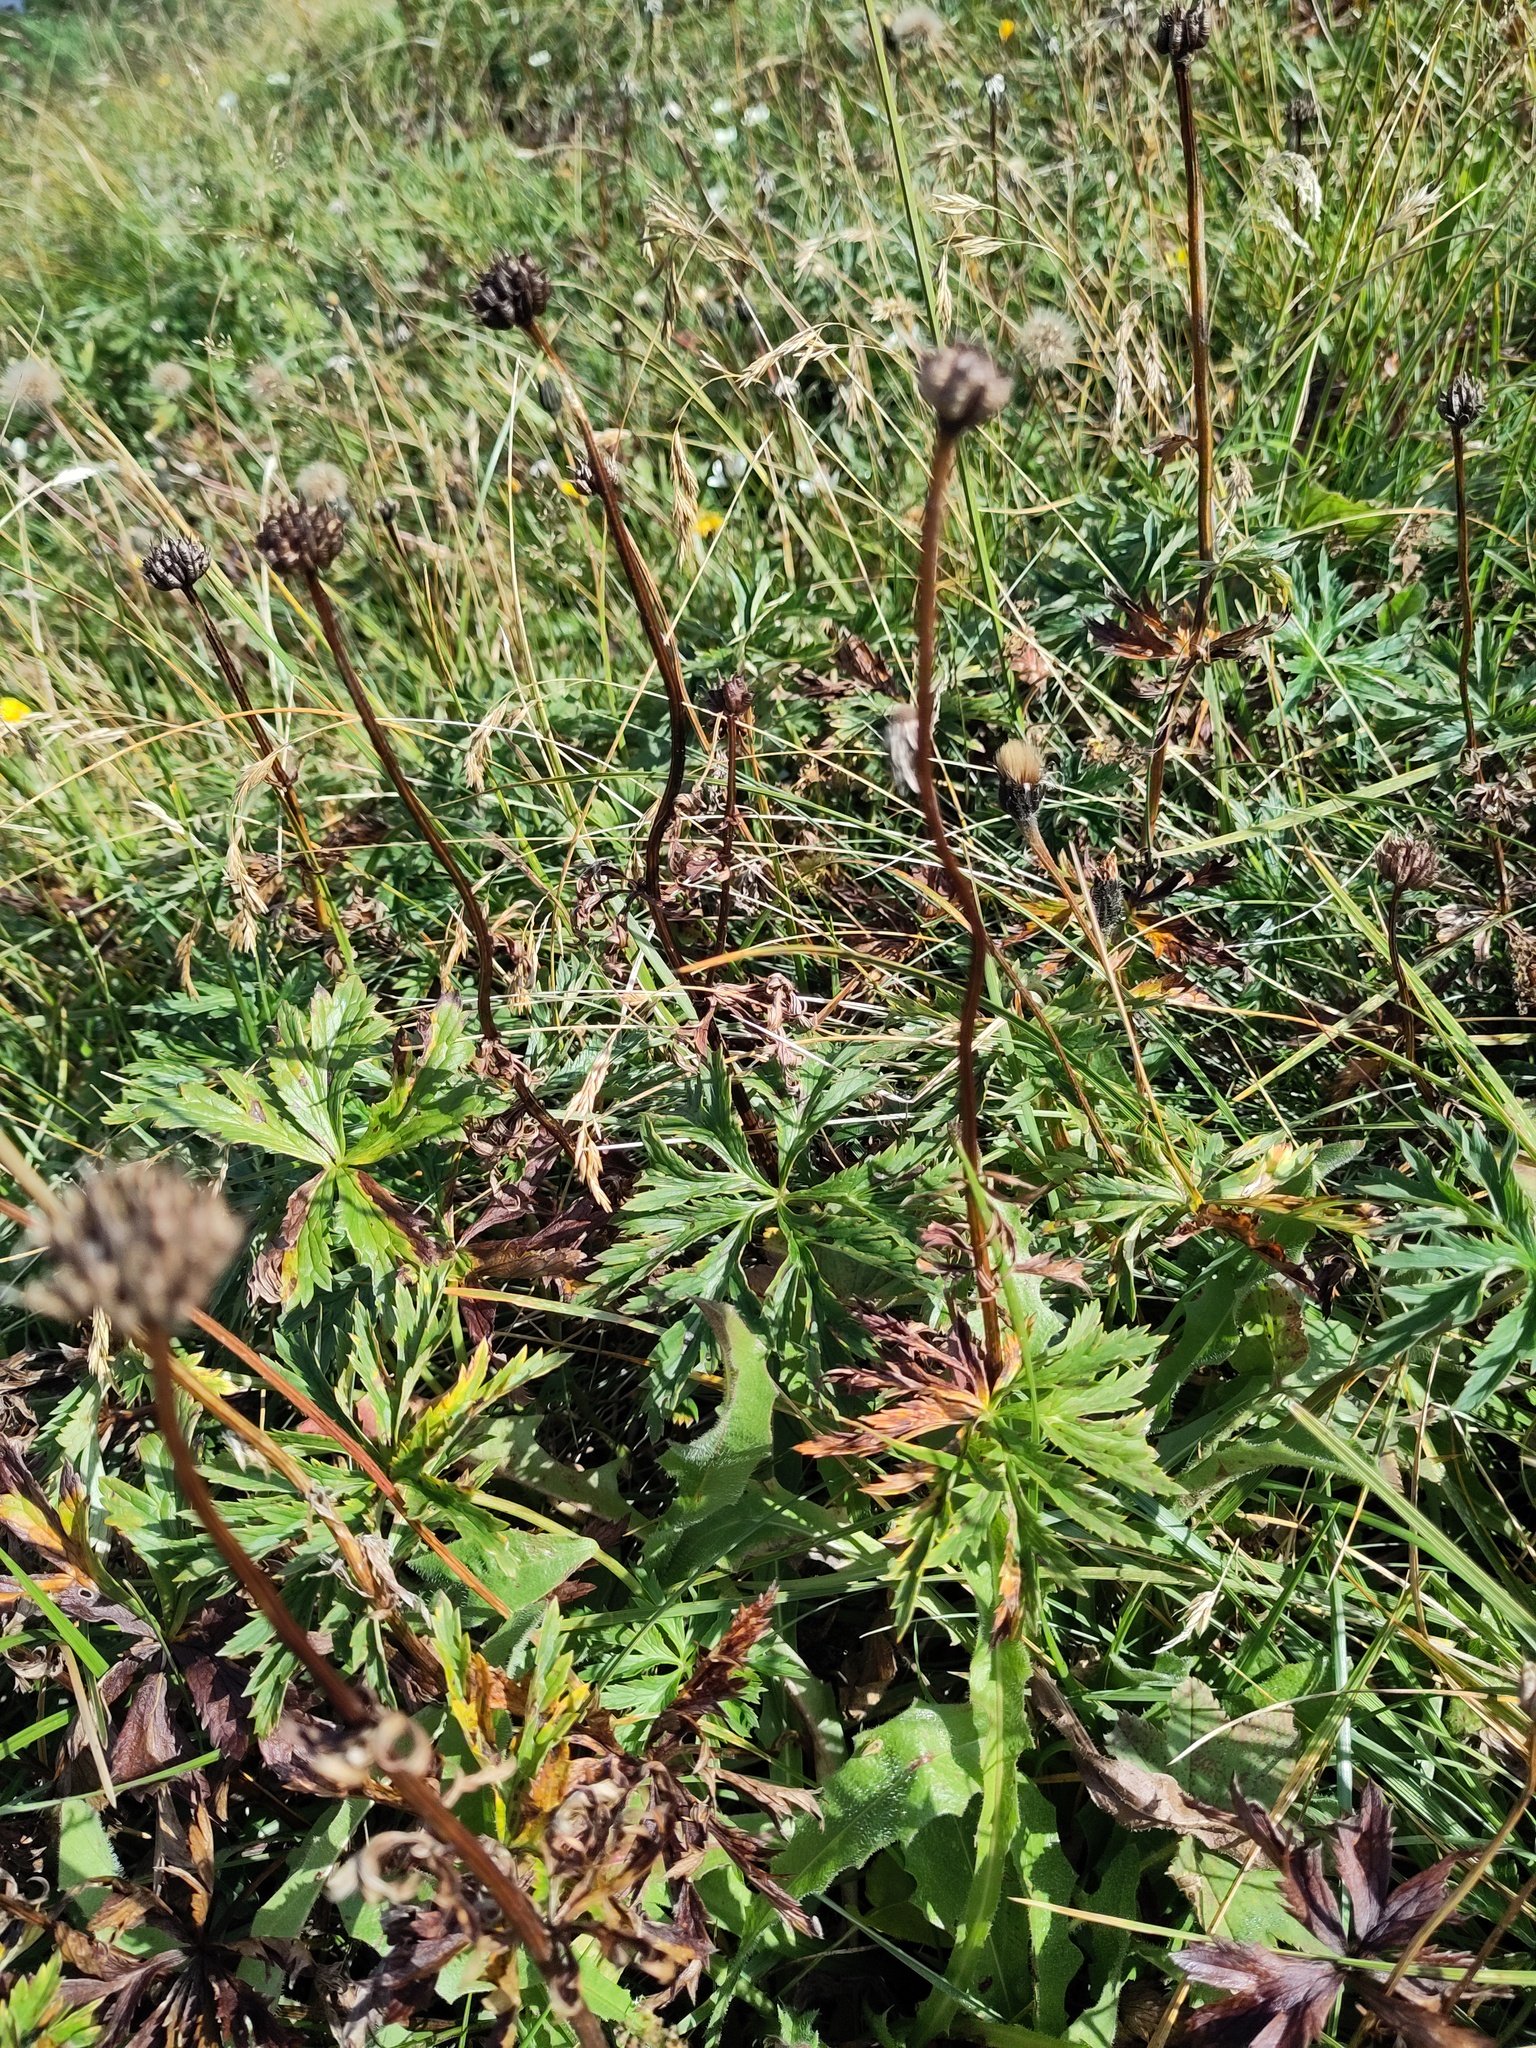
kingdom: Plantae
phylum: Tracheophyta
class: Magnoliopsida
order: Ranunculales
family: Ranunculaceae
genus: Trollius
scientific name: Trollius europaeus
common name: European globeflower
